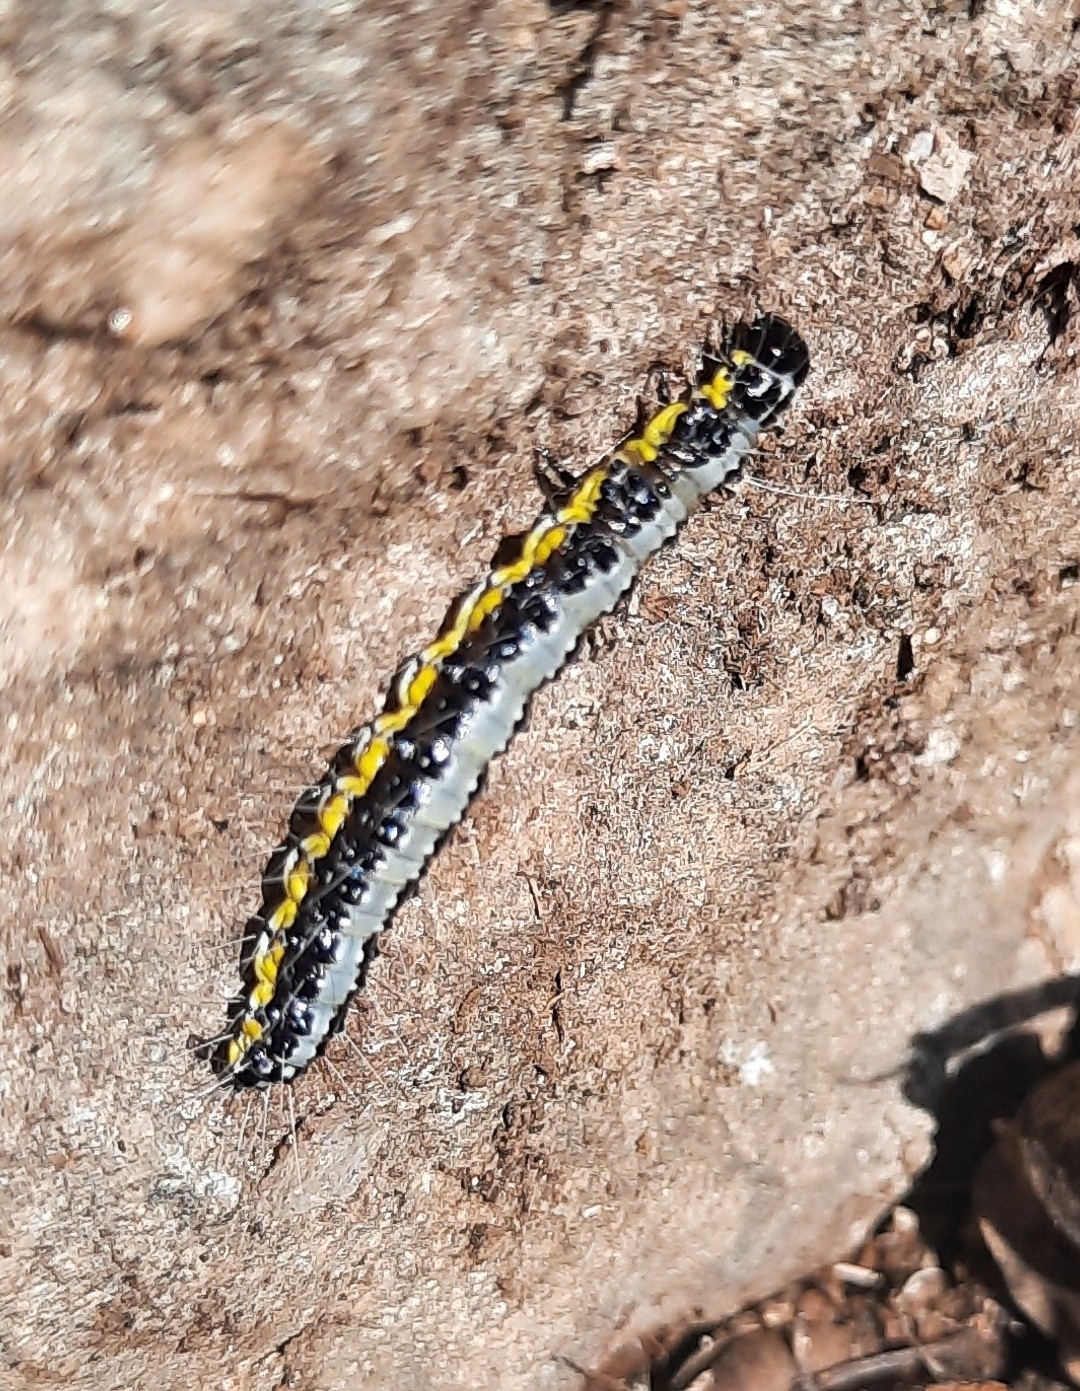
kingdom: Animalia
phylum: Arthropoda
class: Insecta
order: Lepidoptera
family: Crambidae
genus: Uresiphita
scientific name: Uresiphita gilvata
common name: Yellow-underwing pearl
